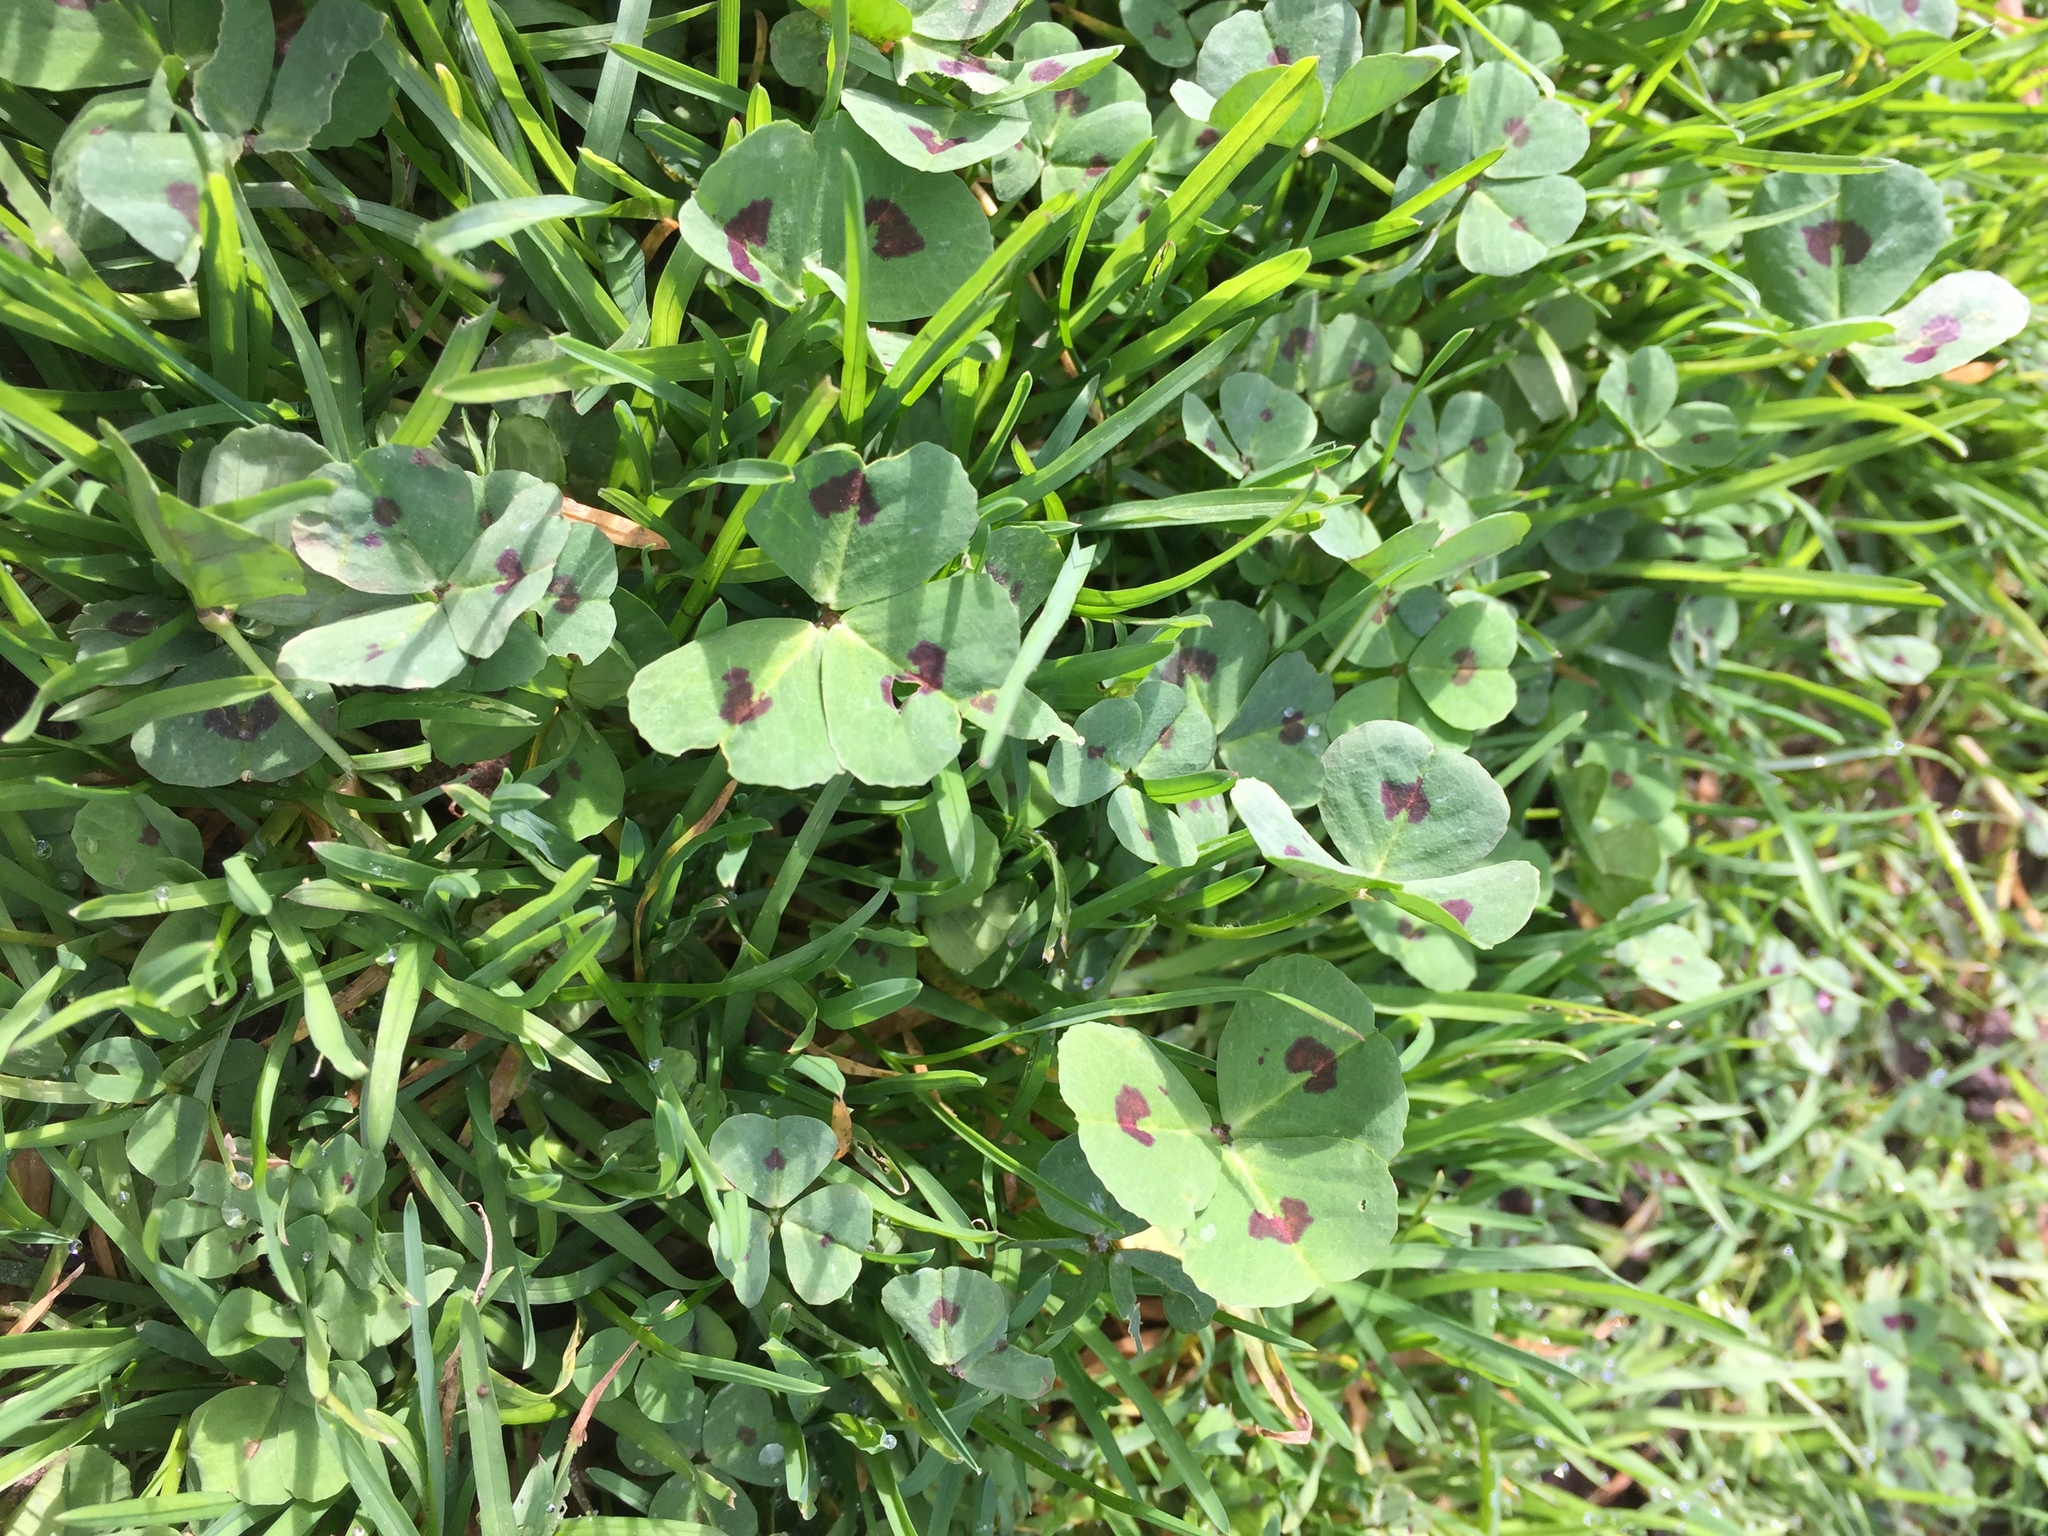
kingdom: Plantae
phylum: Tracheophyta
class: Magnoliopsida
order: Fabales
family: Fabaceae
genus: Medicago
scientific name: Medicago arabica
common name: Spotted medick
